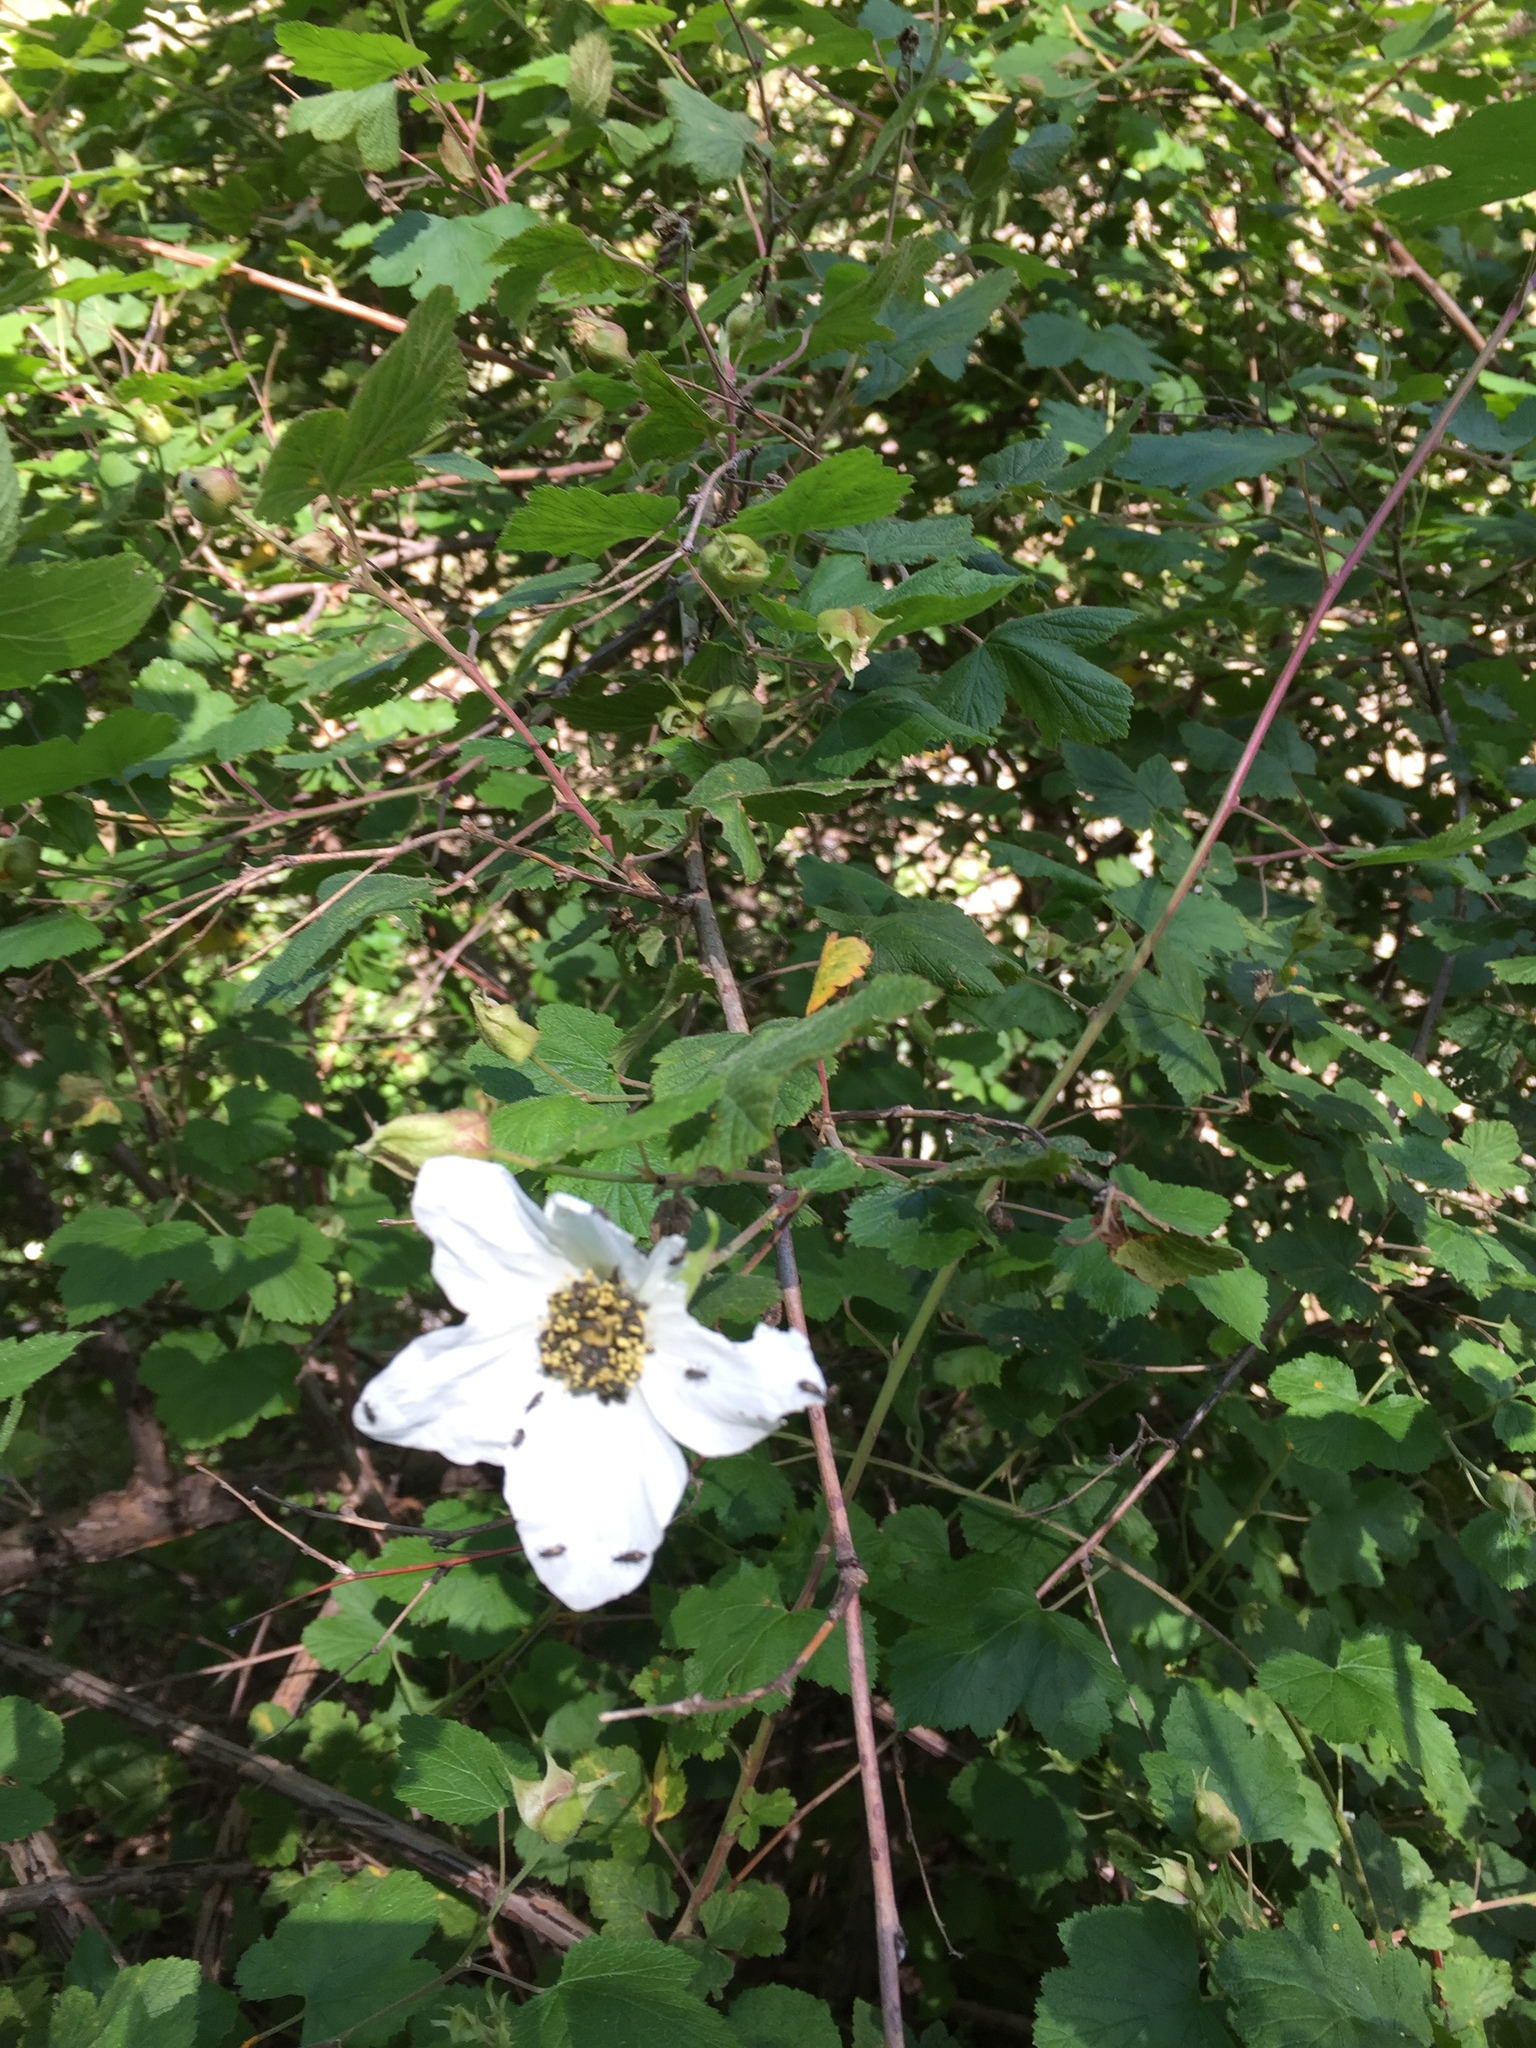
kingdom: Plantae
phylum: Tracheophyta
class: Magnoliopsida
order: Rosales
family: Rosaceae
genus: Rubus
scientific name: Rubus neomexicanus
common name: New mexico raspberry
